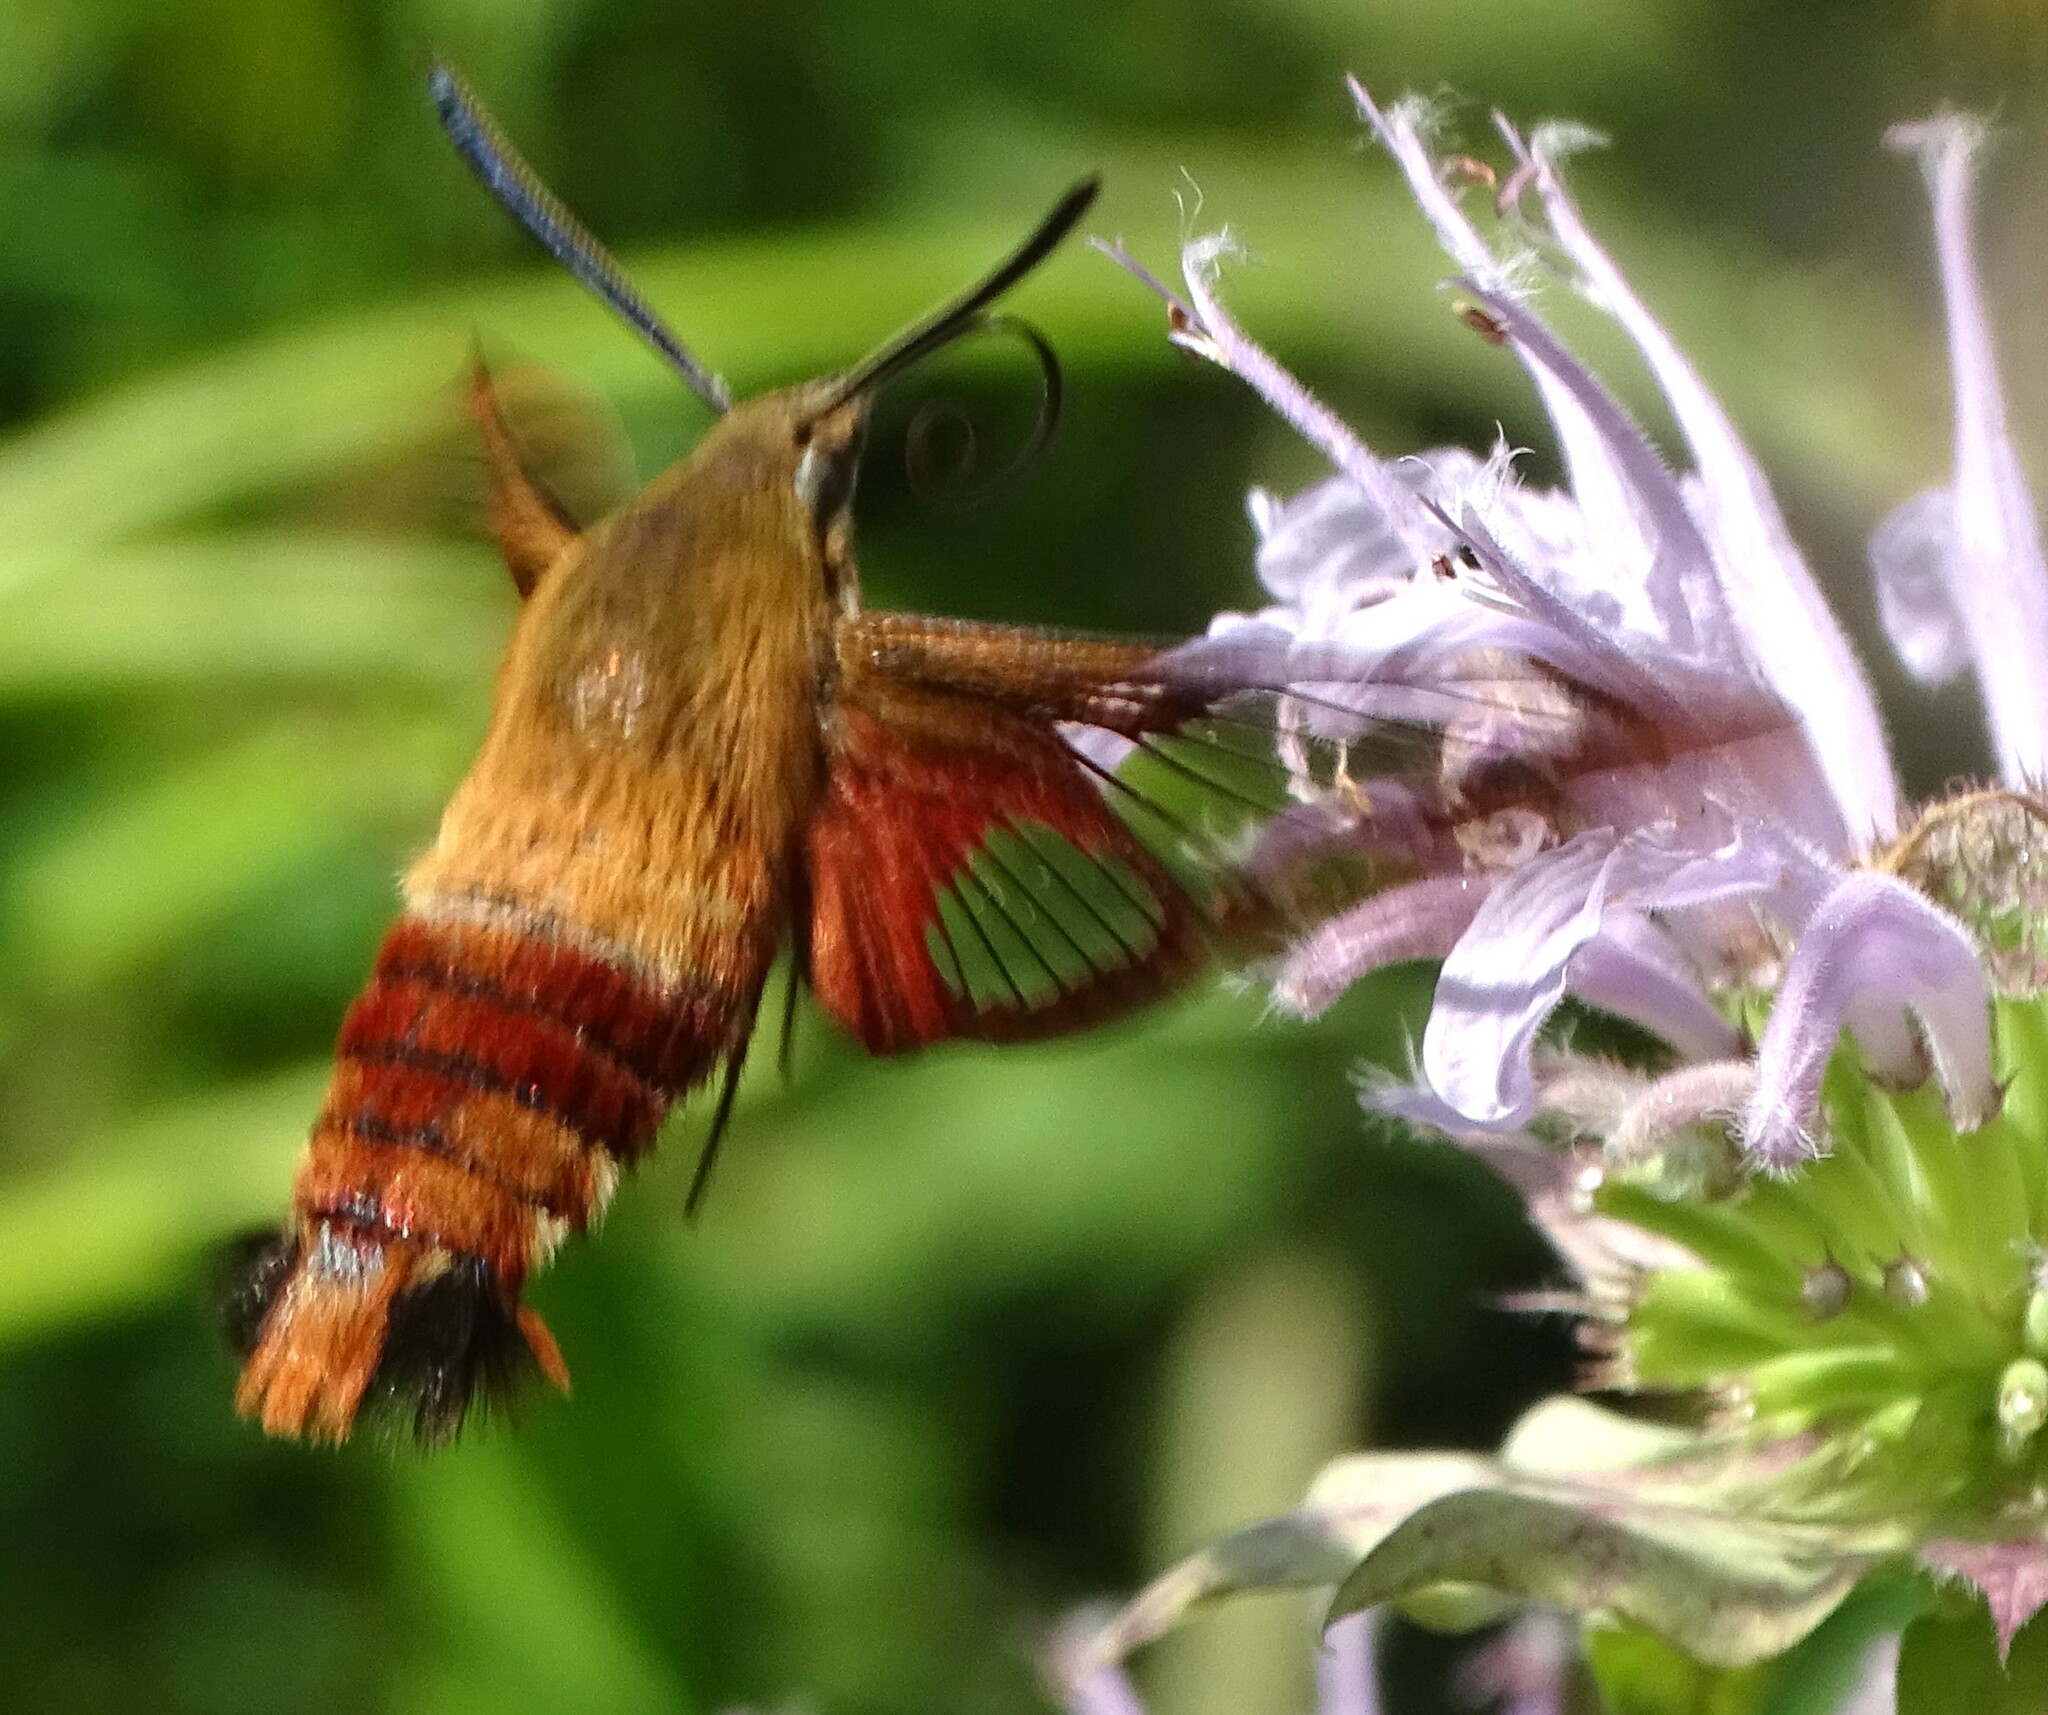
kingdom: Animalia
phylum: Arthropoda
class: Insecta
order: Lepidoptera
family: Sphingidae
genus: Hemaris
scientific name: Hemaris thysbe
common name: Common clear-wing
